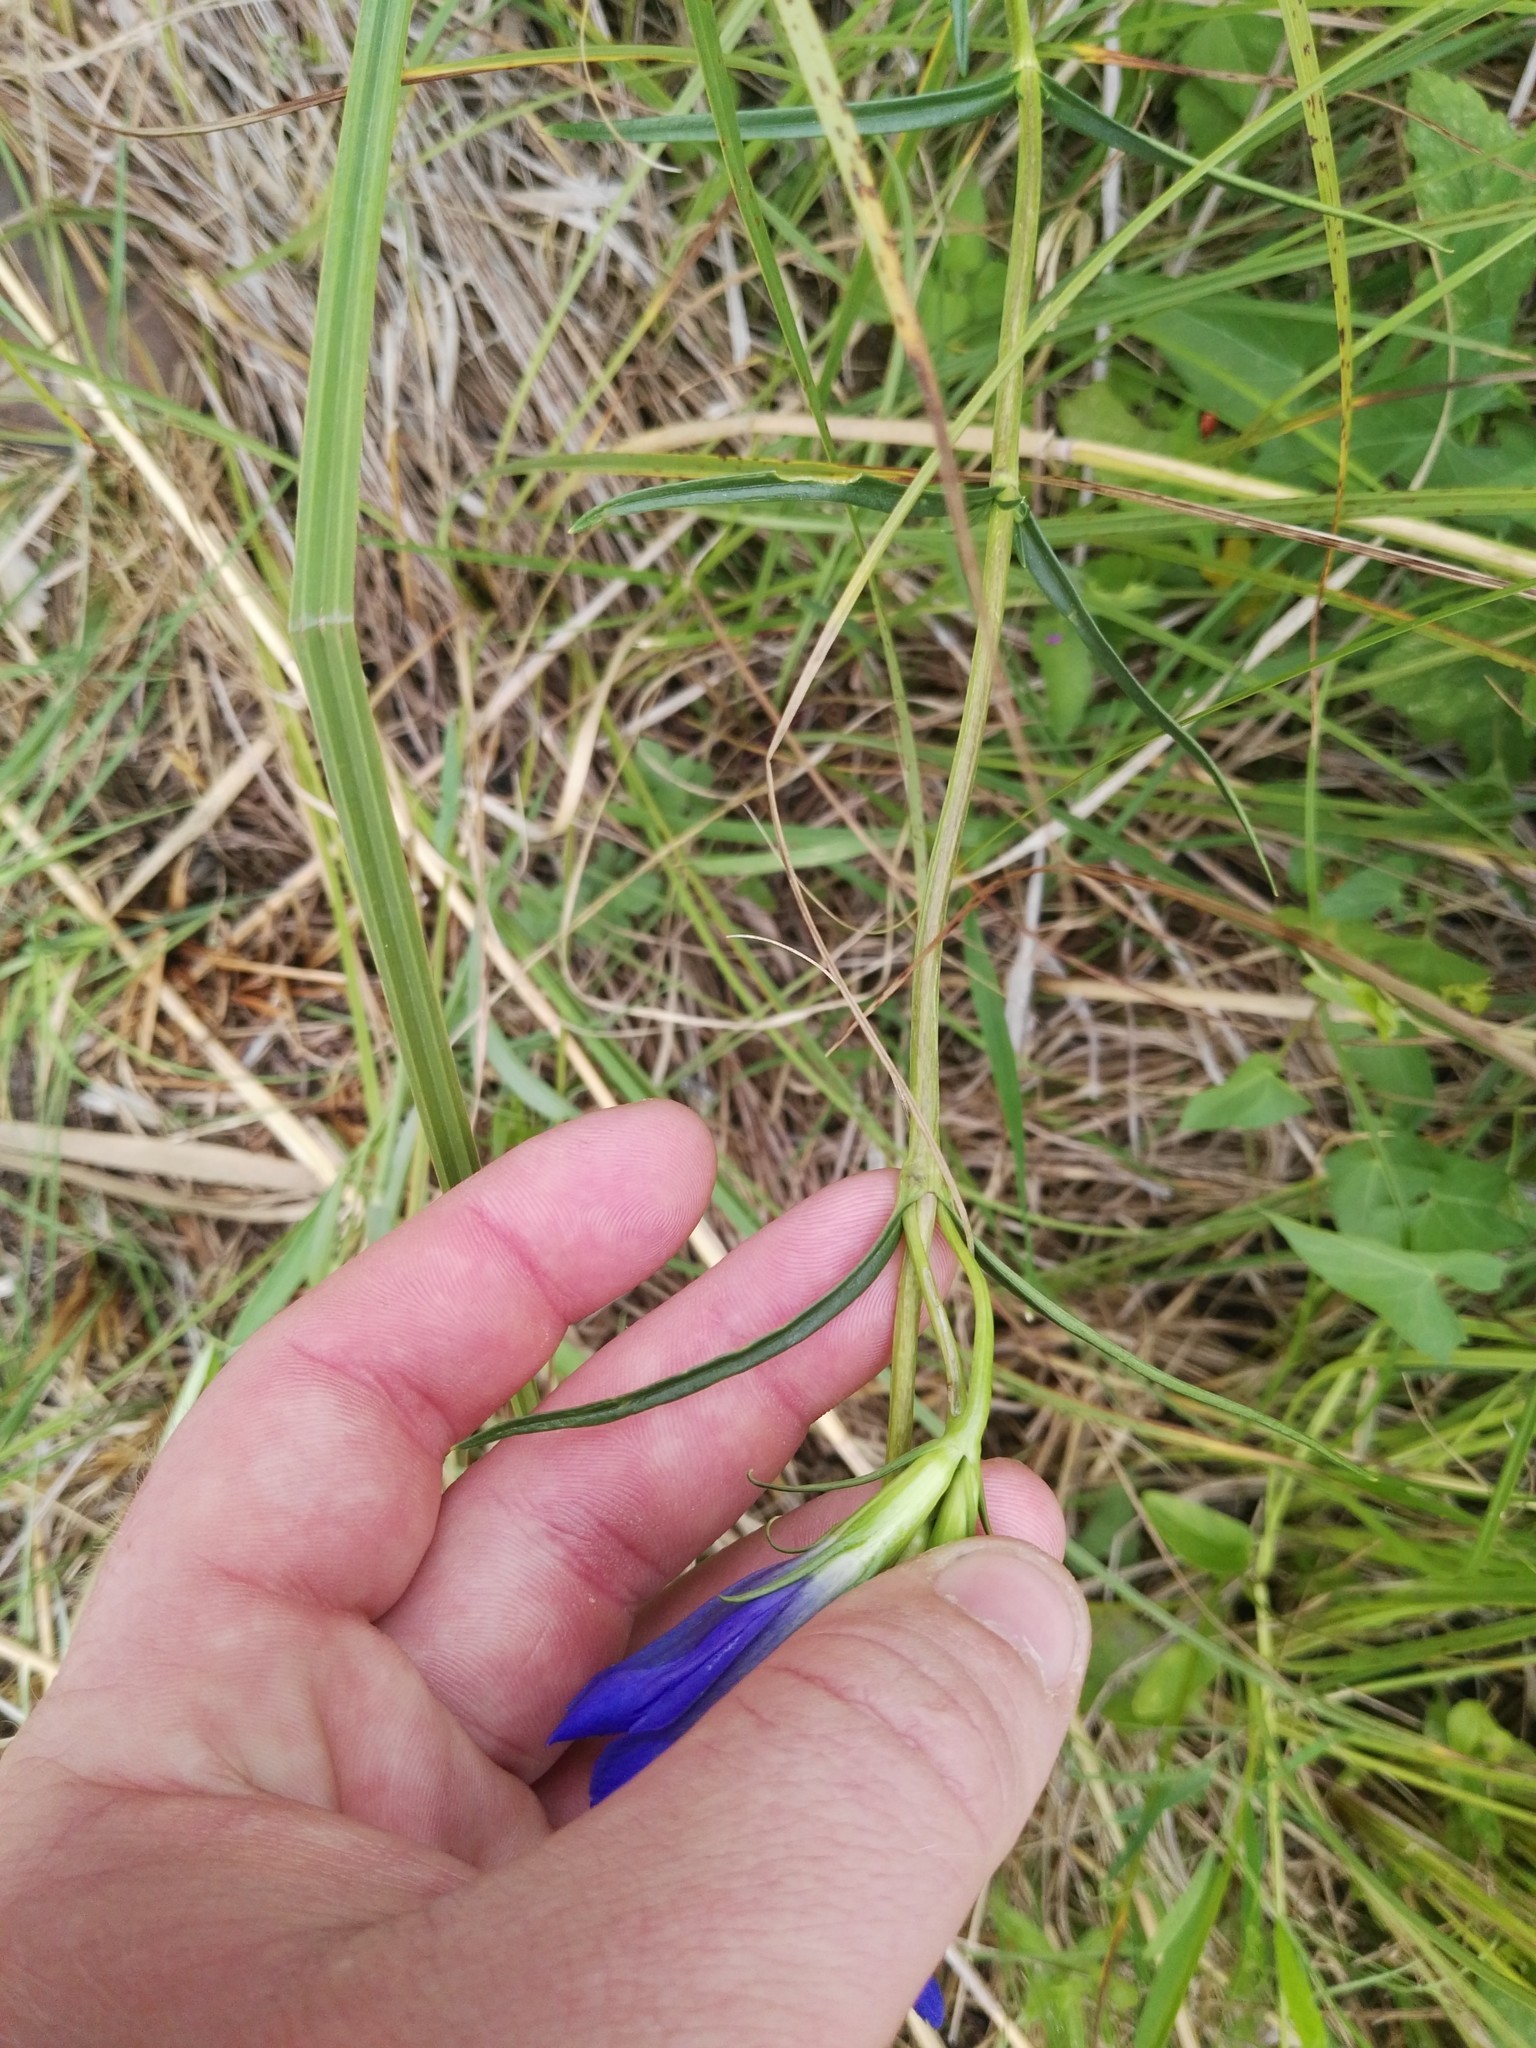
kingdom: Plantae
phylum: Tracheophyta
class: Magnoliopsida
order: Gentianales
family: Gentianaceae
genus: Gentiana
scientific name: Gentiana pneumonanthe
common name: Marsh gentian
